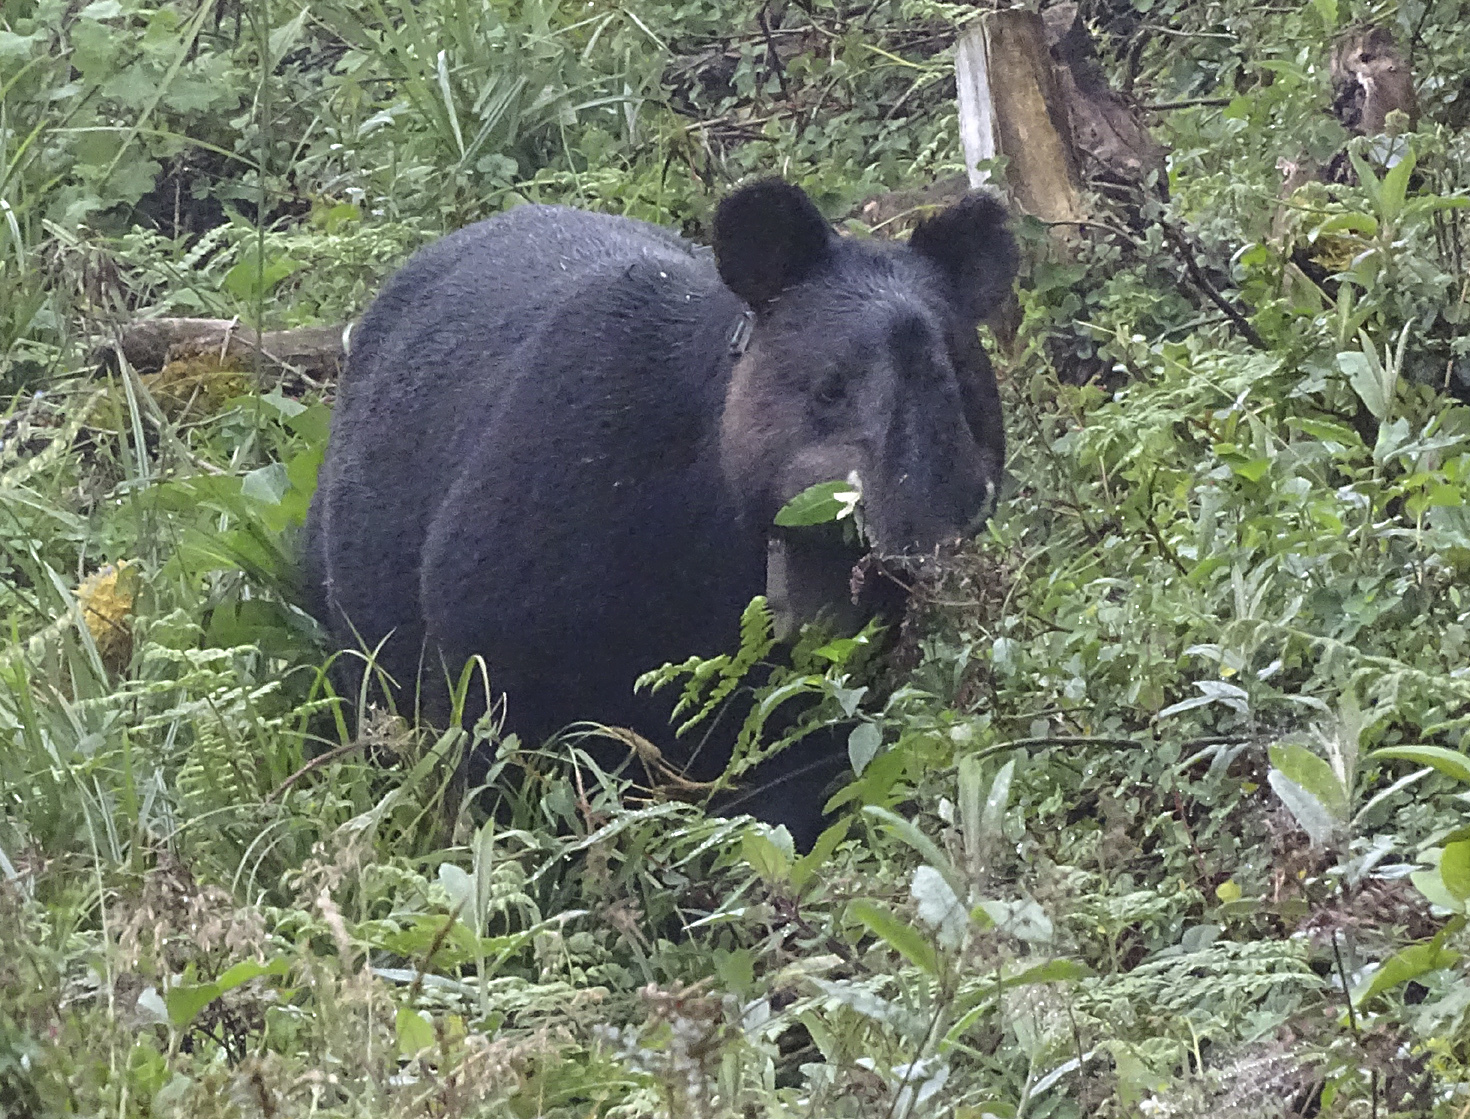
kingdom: Animalia
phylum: Chordata
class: Mammalia
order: Perissodactyla
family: Tapiridae
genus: Tapirus
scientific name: Tapirus pinchaque
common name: Mountain tapir
